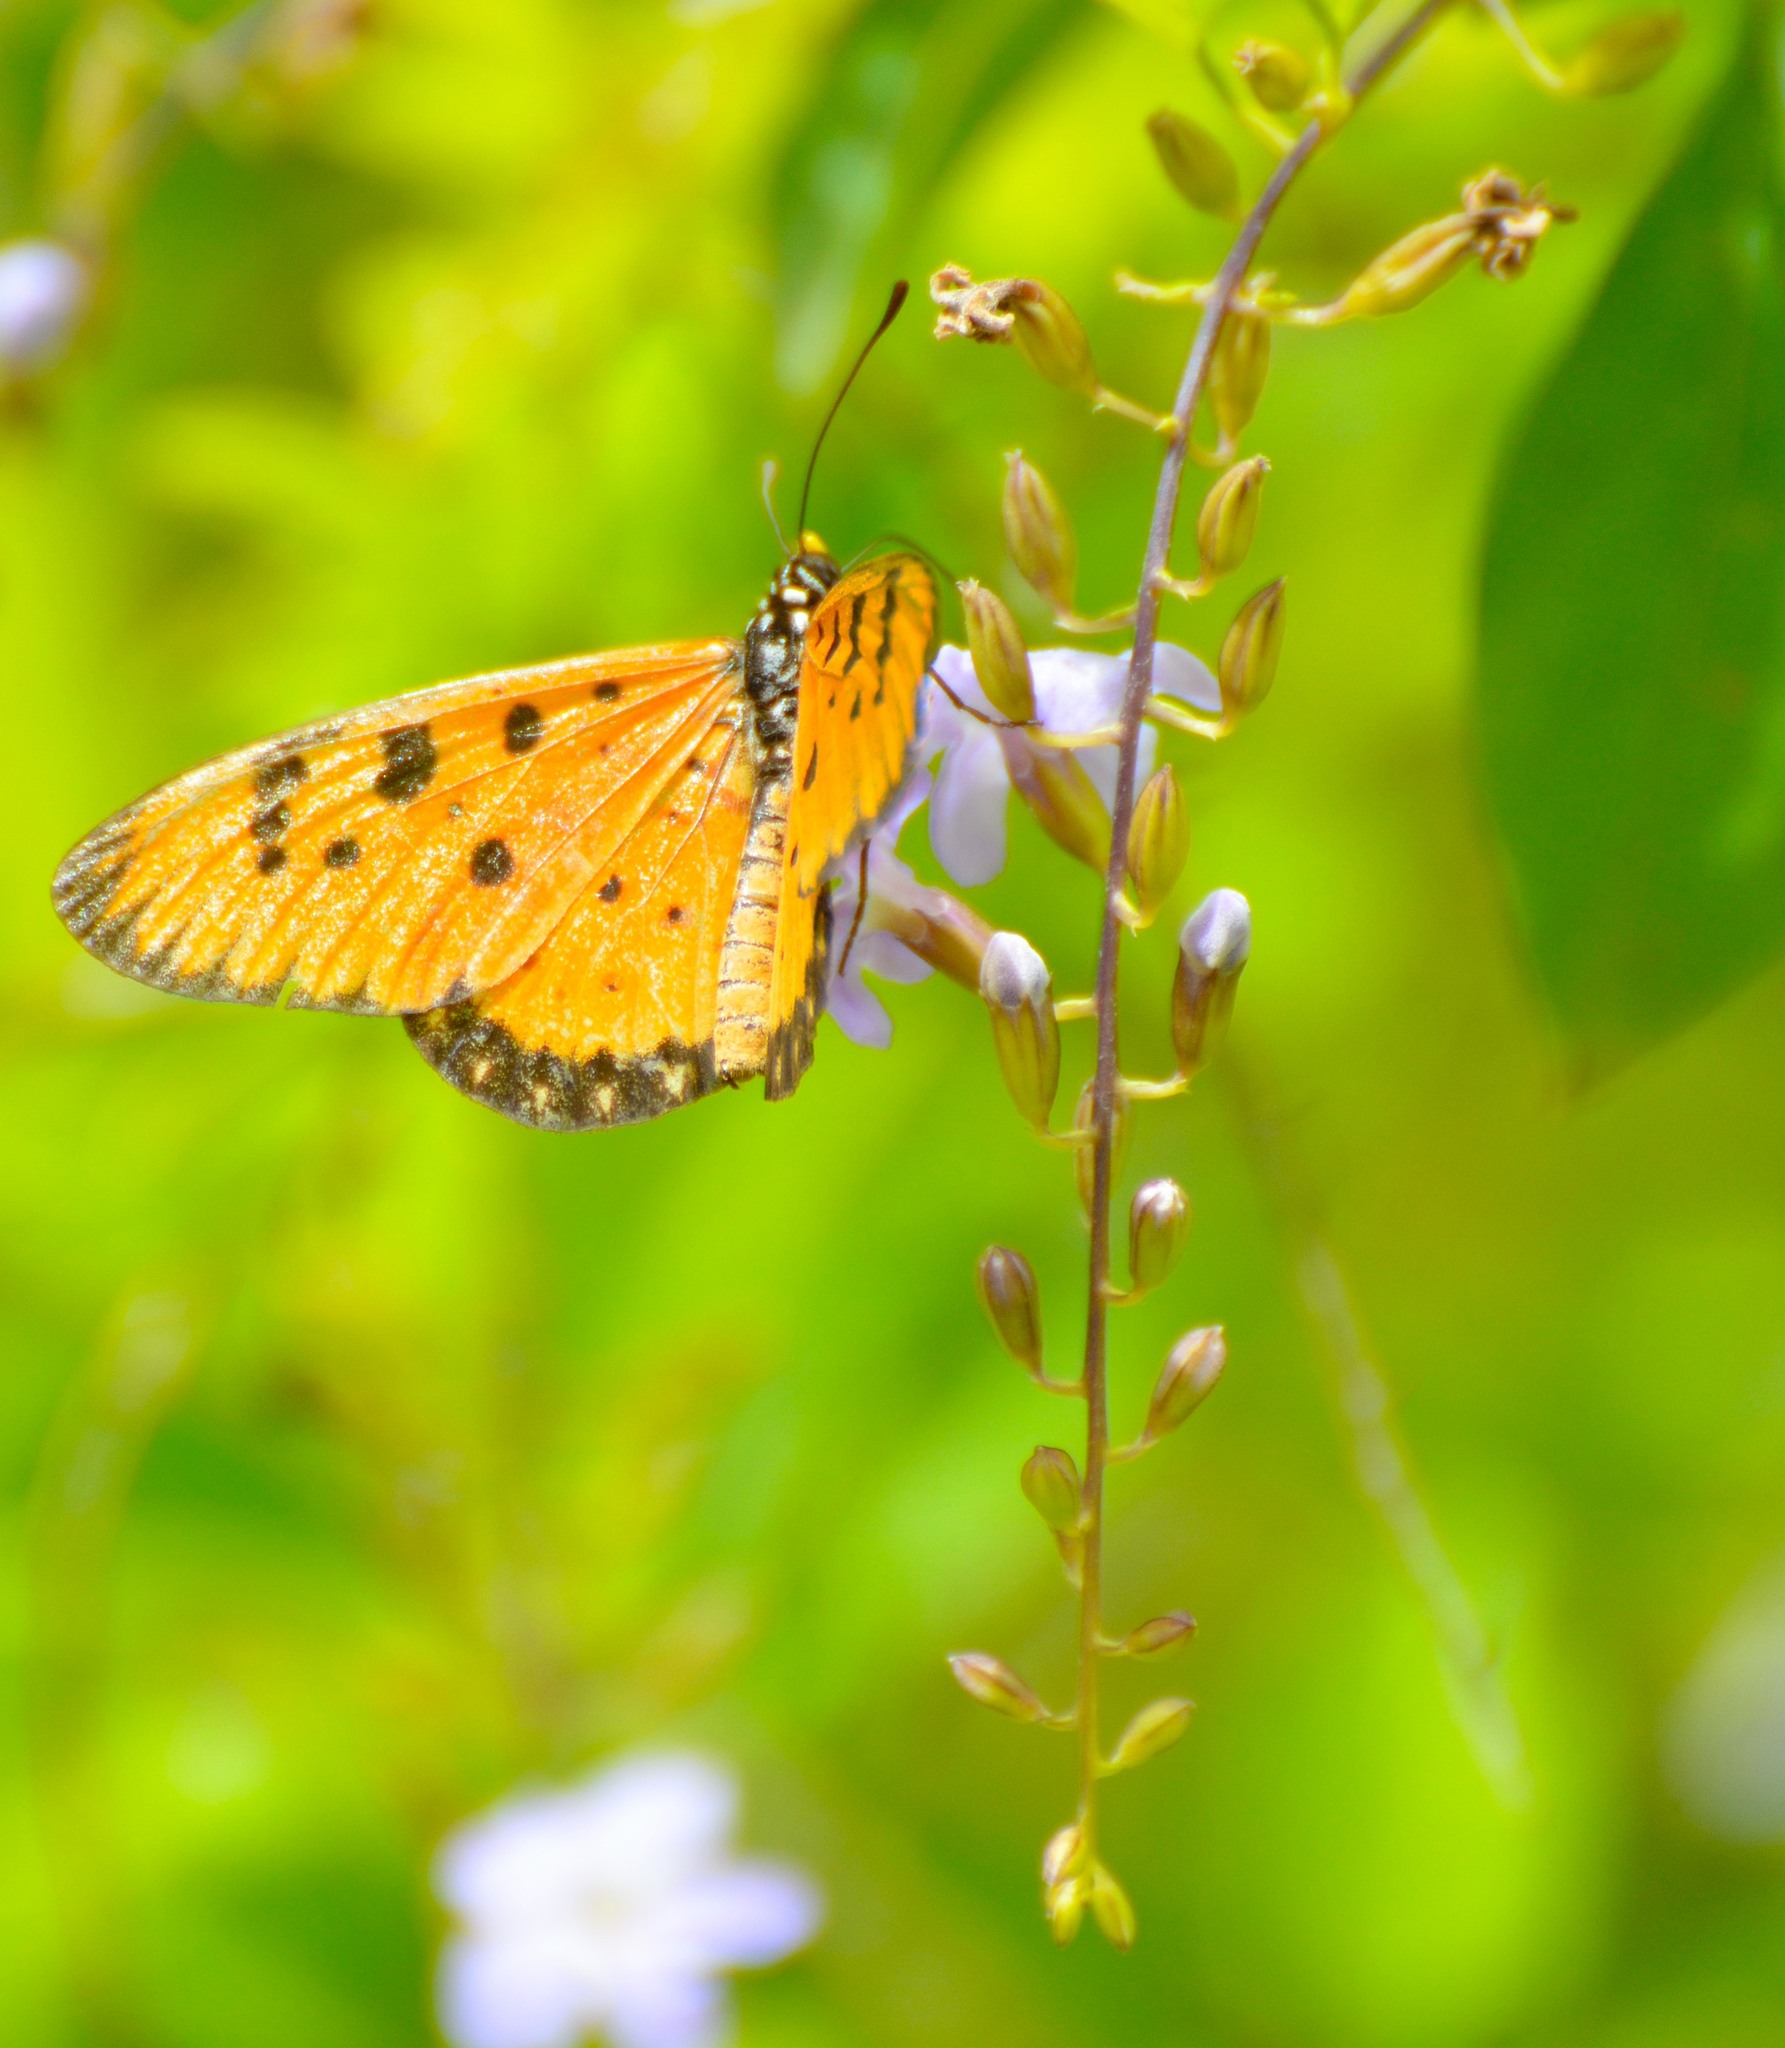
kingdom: Animalia
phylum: Arthropoda
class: Insecta
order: Lepidoptera
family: Nymphalidae
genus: Acraea
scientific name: Acraea terpsicore
